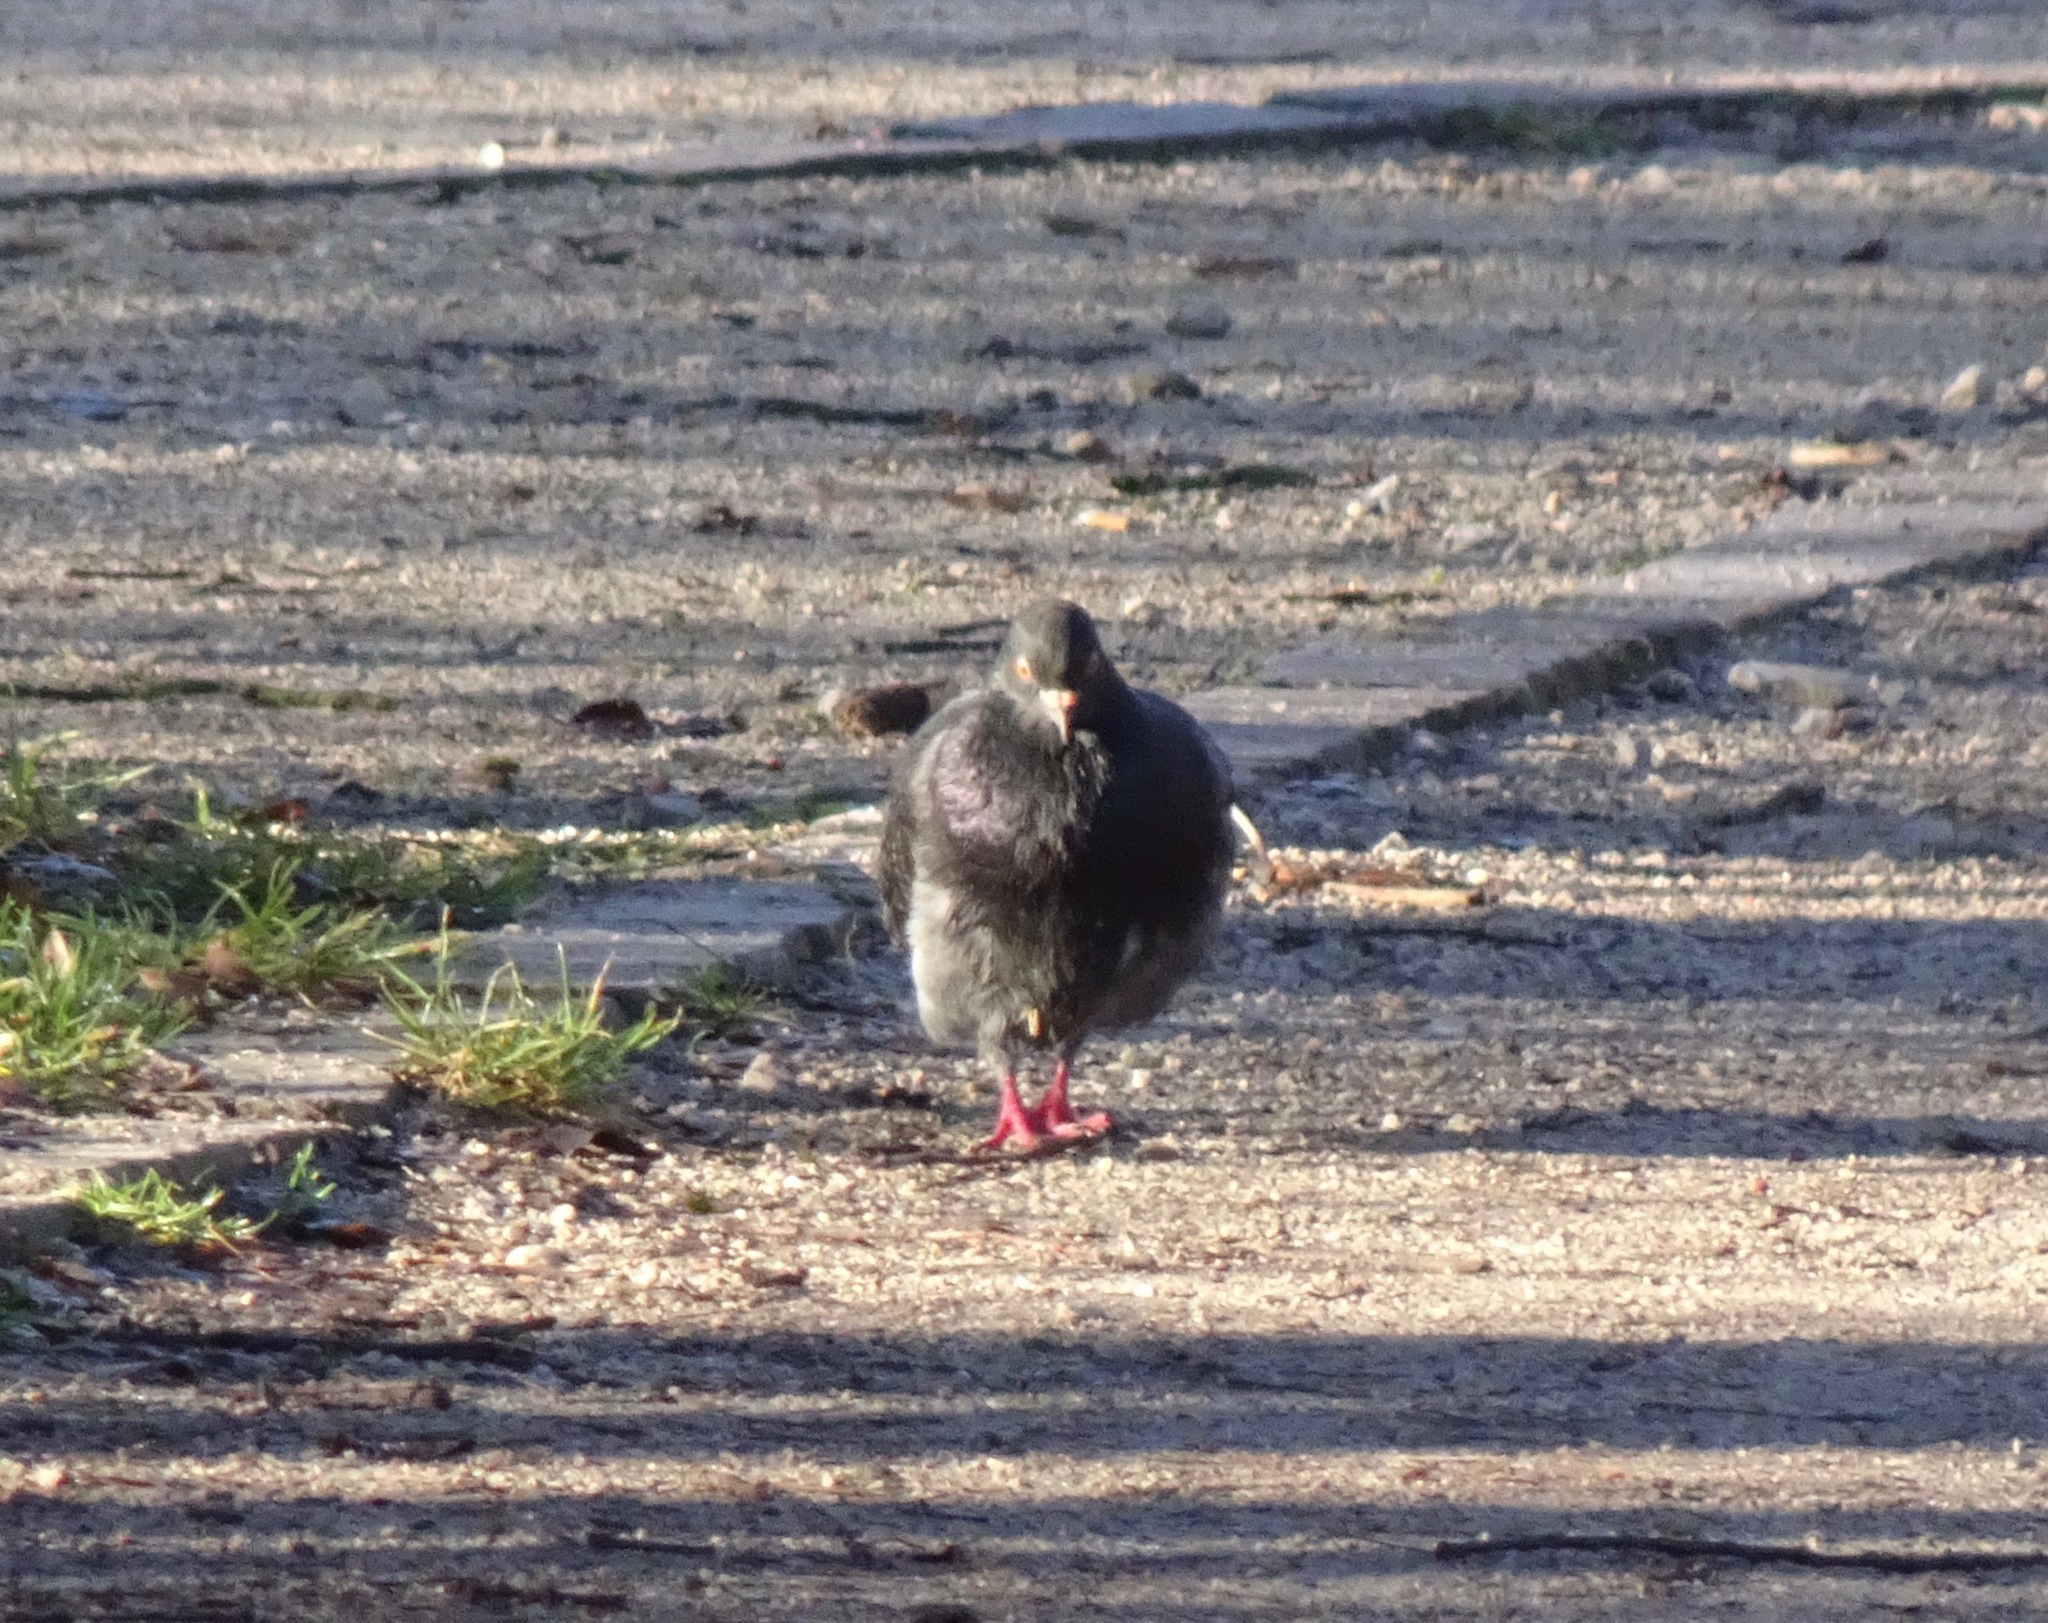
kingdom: Animalia
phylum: Chordata
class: Aves
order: Columbiformes
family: Columbidae
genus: Columba
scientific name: Columba livia
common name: Rock pigeon
